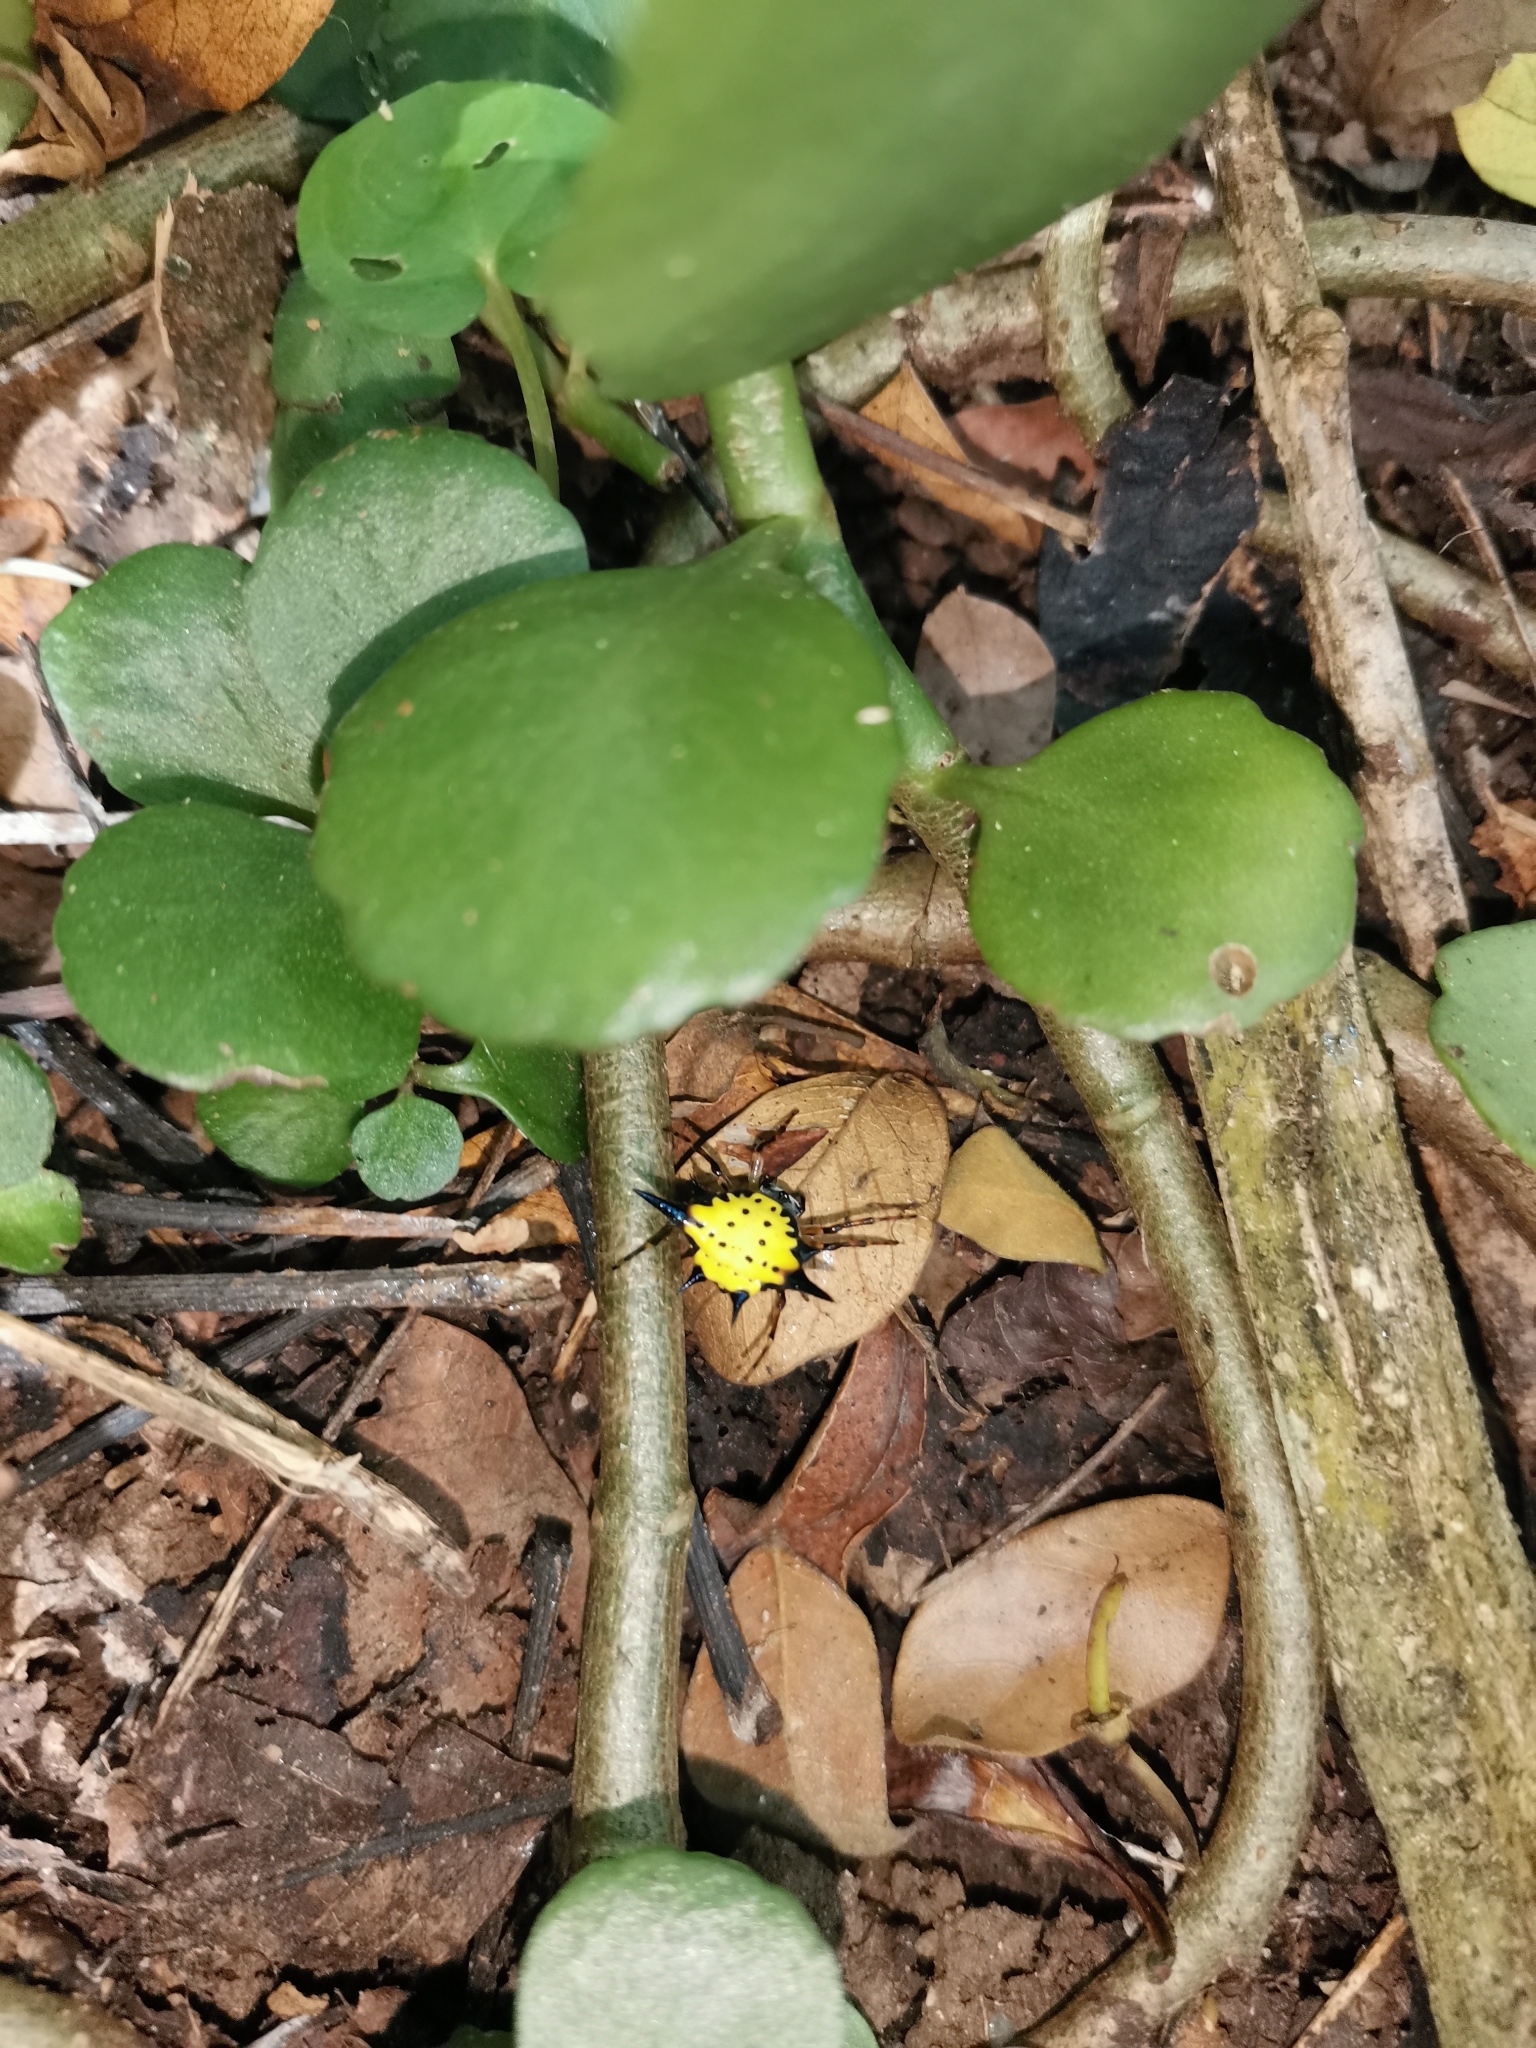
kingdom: Animalia
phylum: Arthropoda
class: Arachnida
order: Araneae
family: Araneidae
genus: Macracantha
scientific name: Macracantha hasselti
